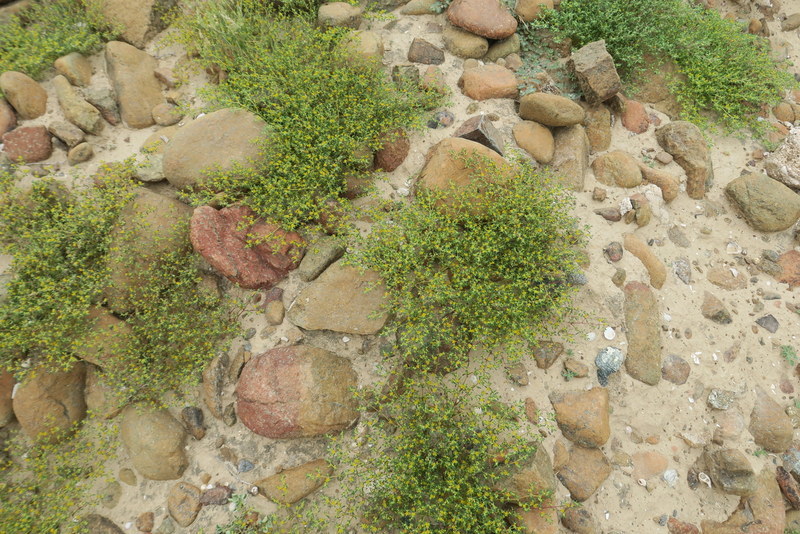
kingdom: Plantae
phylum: Tracheophyta
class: Magnoliopsida
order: Zygophyllales
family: Zygophyllaceae
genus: Tetraena
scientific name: Tetraena simplex
